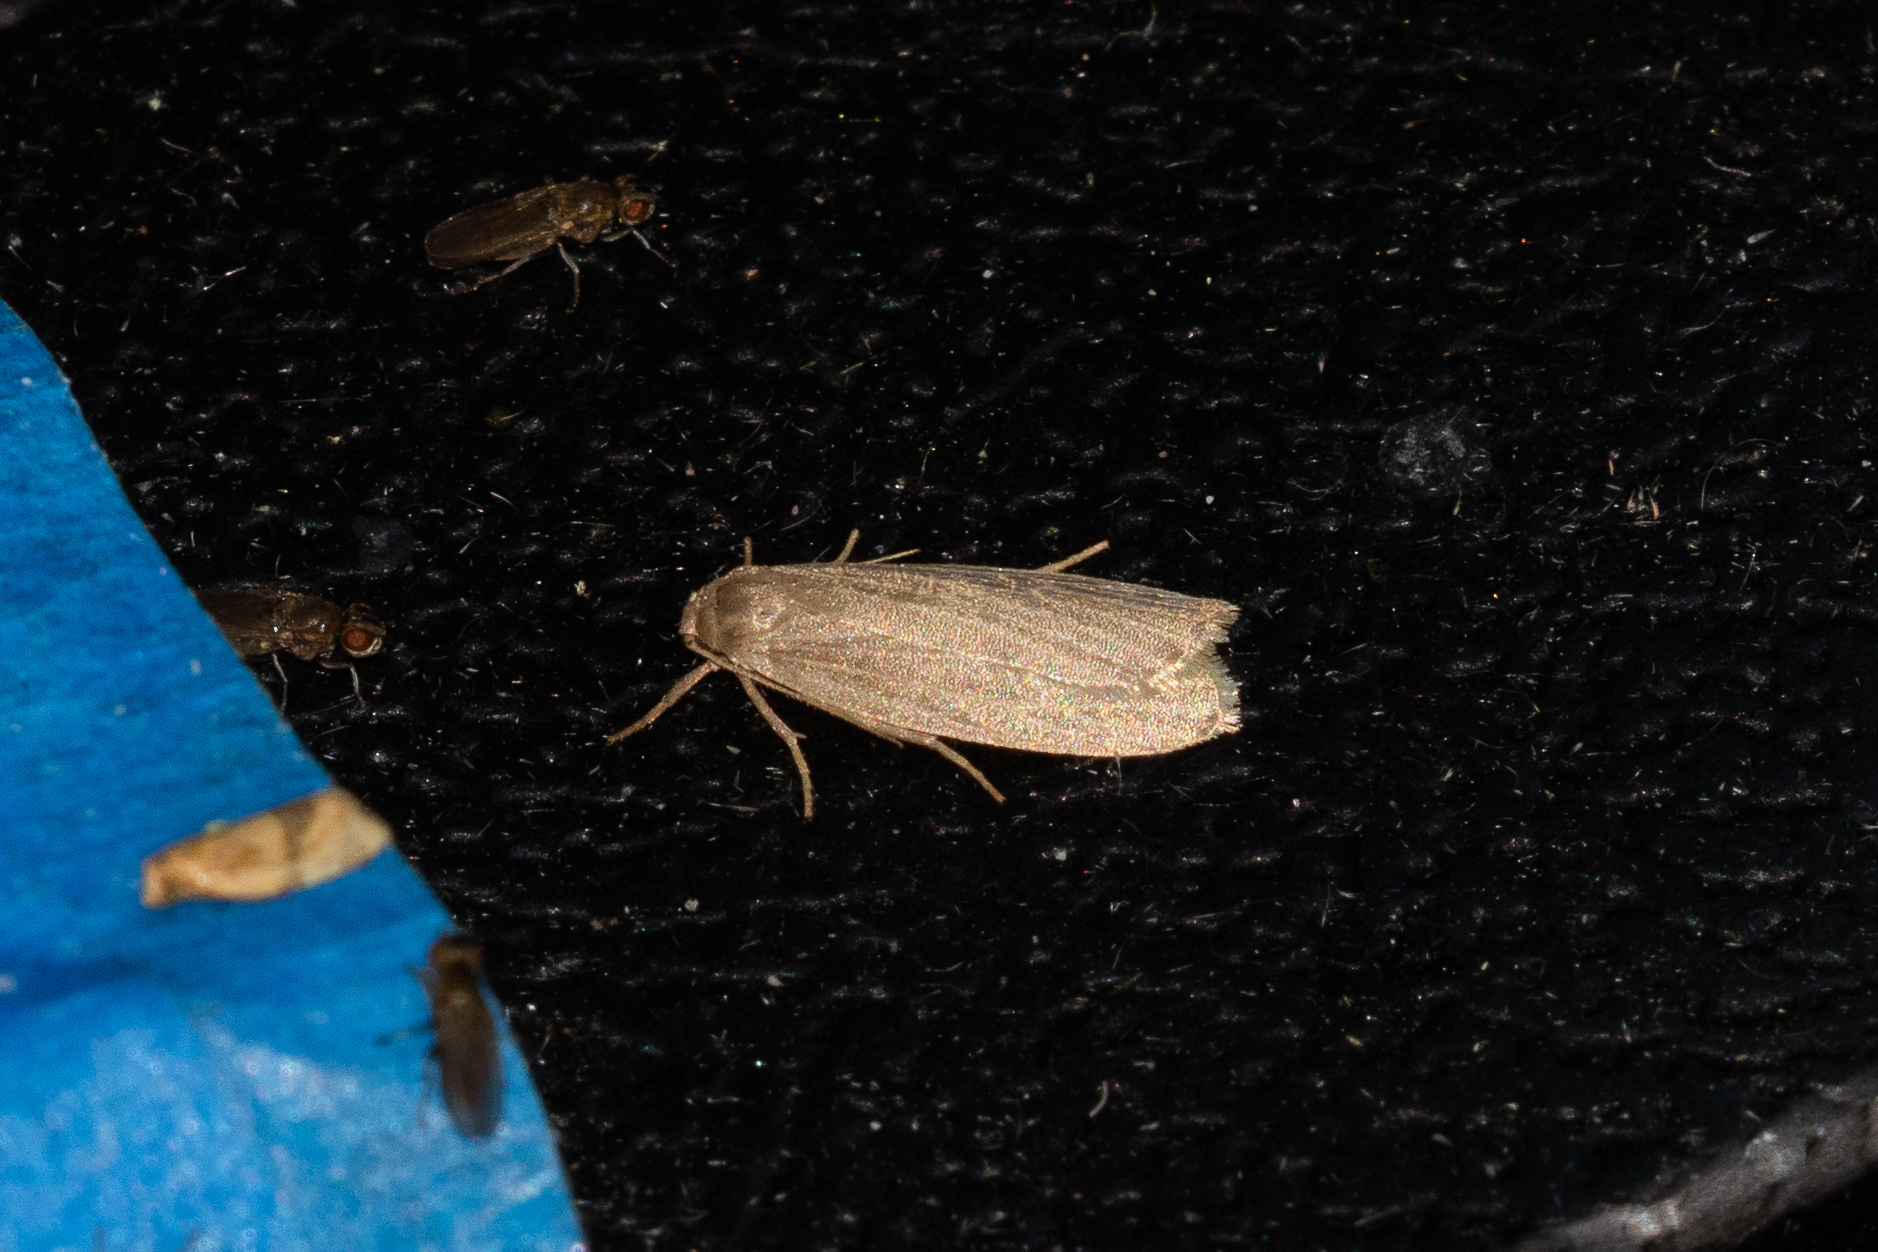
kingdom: Animalia
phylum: Arthropoda
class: Insecta
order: Lepidoptera
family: Erebidae
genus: Crambidia
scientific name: Crambidia pallida
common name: Pale lichen moth
